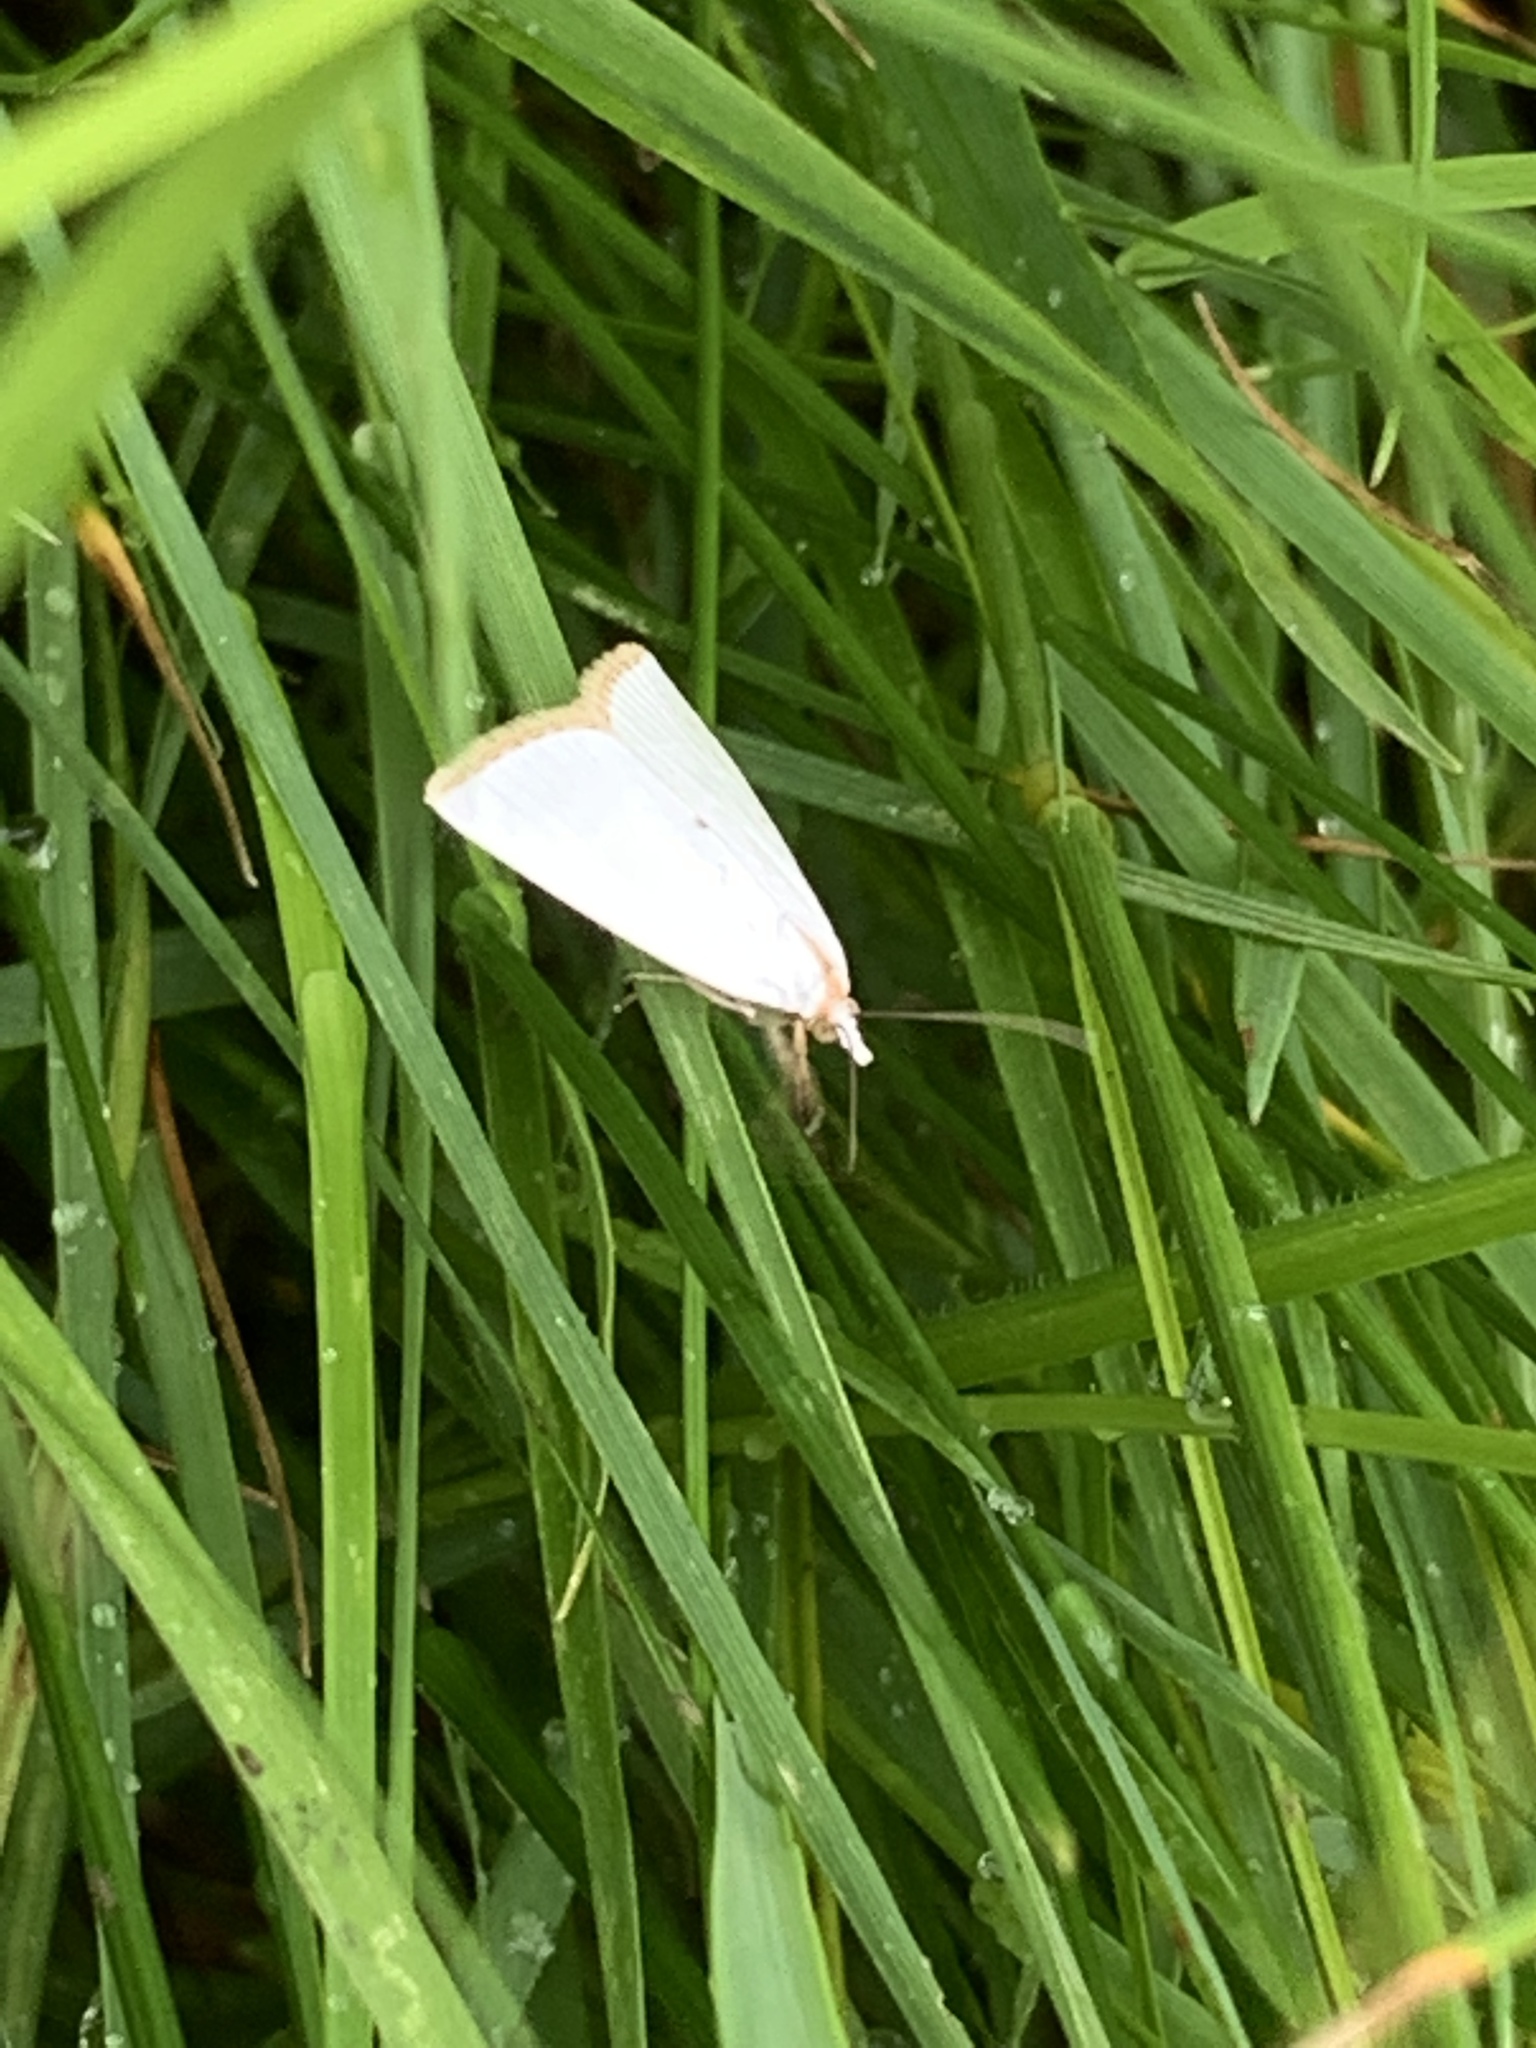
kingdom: Animalia
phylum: Arthropoda
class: Insecta
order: Lepidoptera
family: Crambidae
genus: Argyria
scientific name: Argyria nivalis
